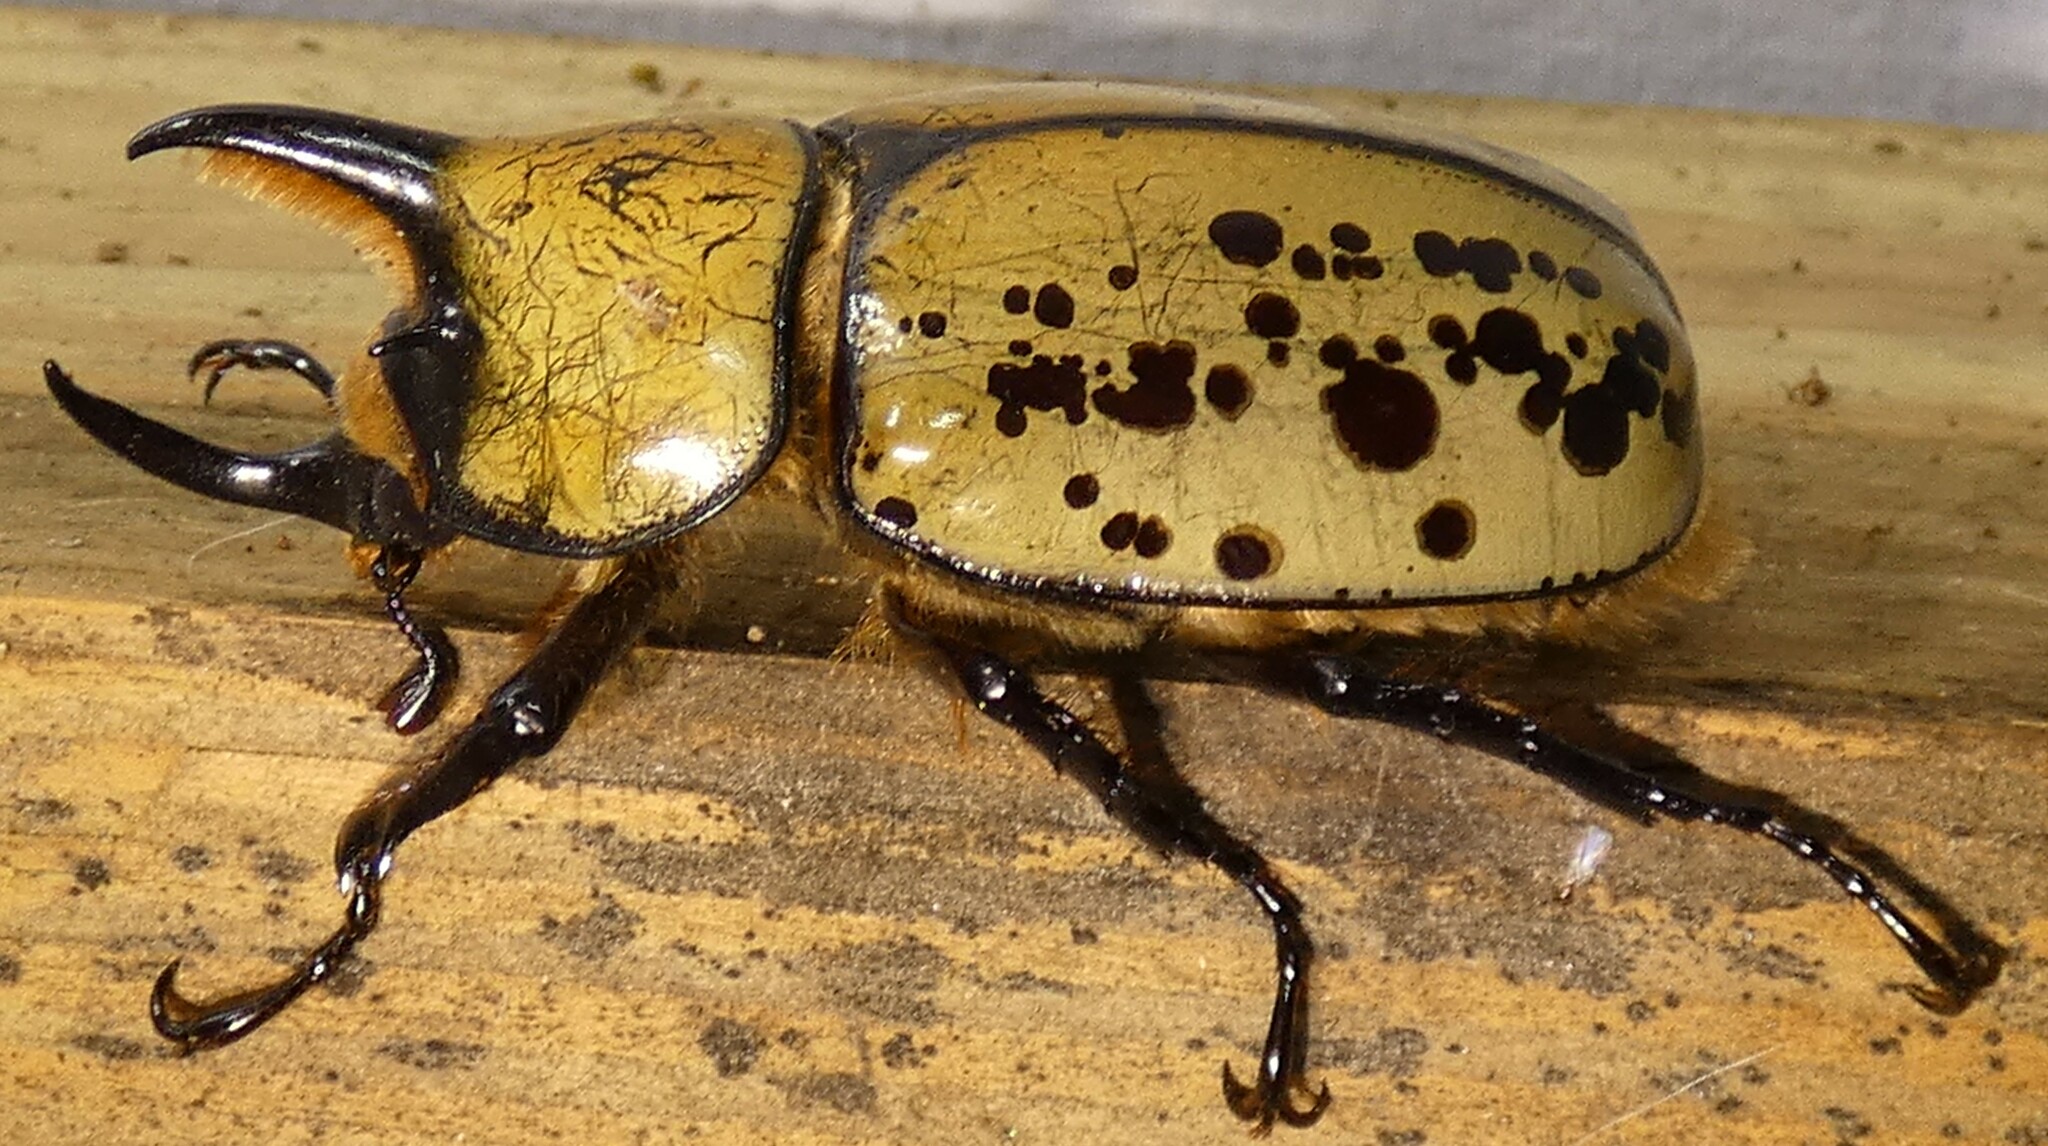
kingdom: Animalia
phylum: Arthropoda
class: Insecta
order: Coleoptera
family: Scarabaeidae
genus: Dynastes
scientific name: Dynastes tityus
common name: Eastern hercules beetle
